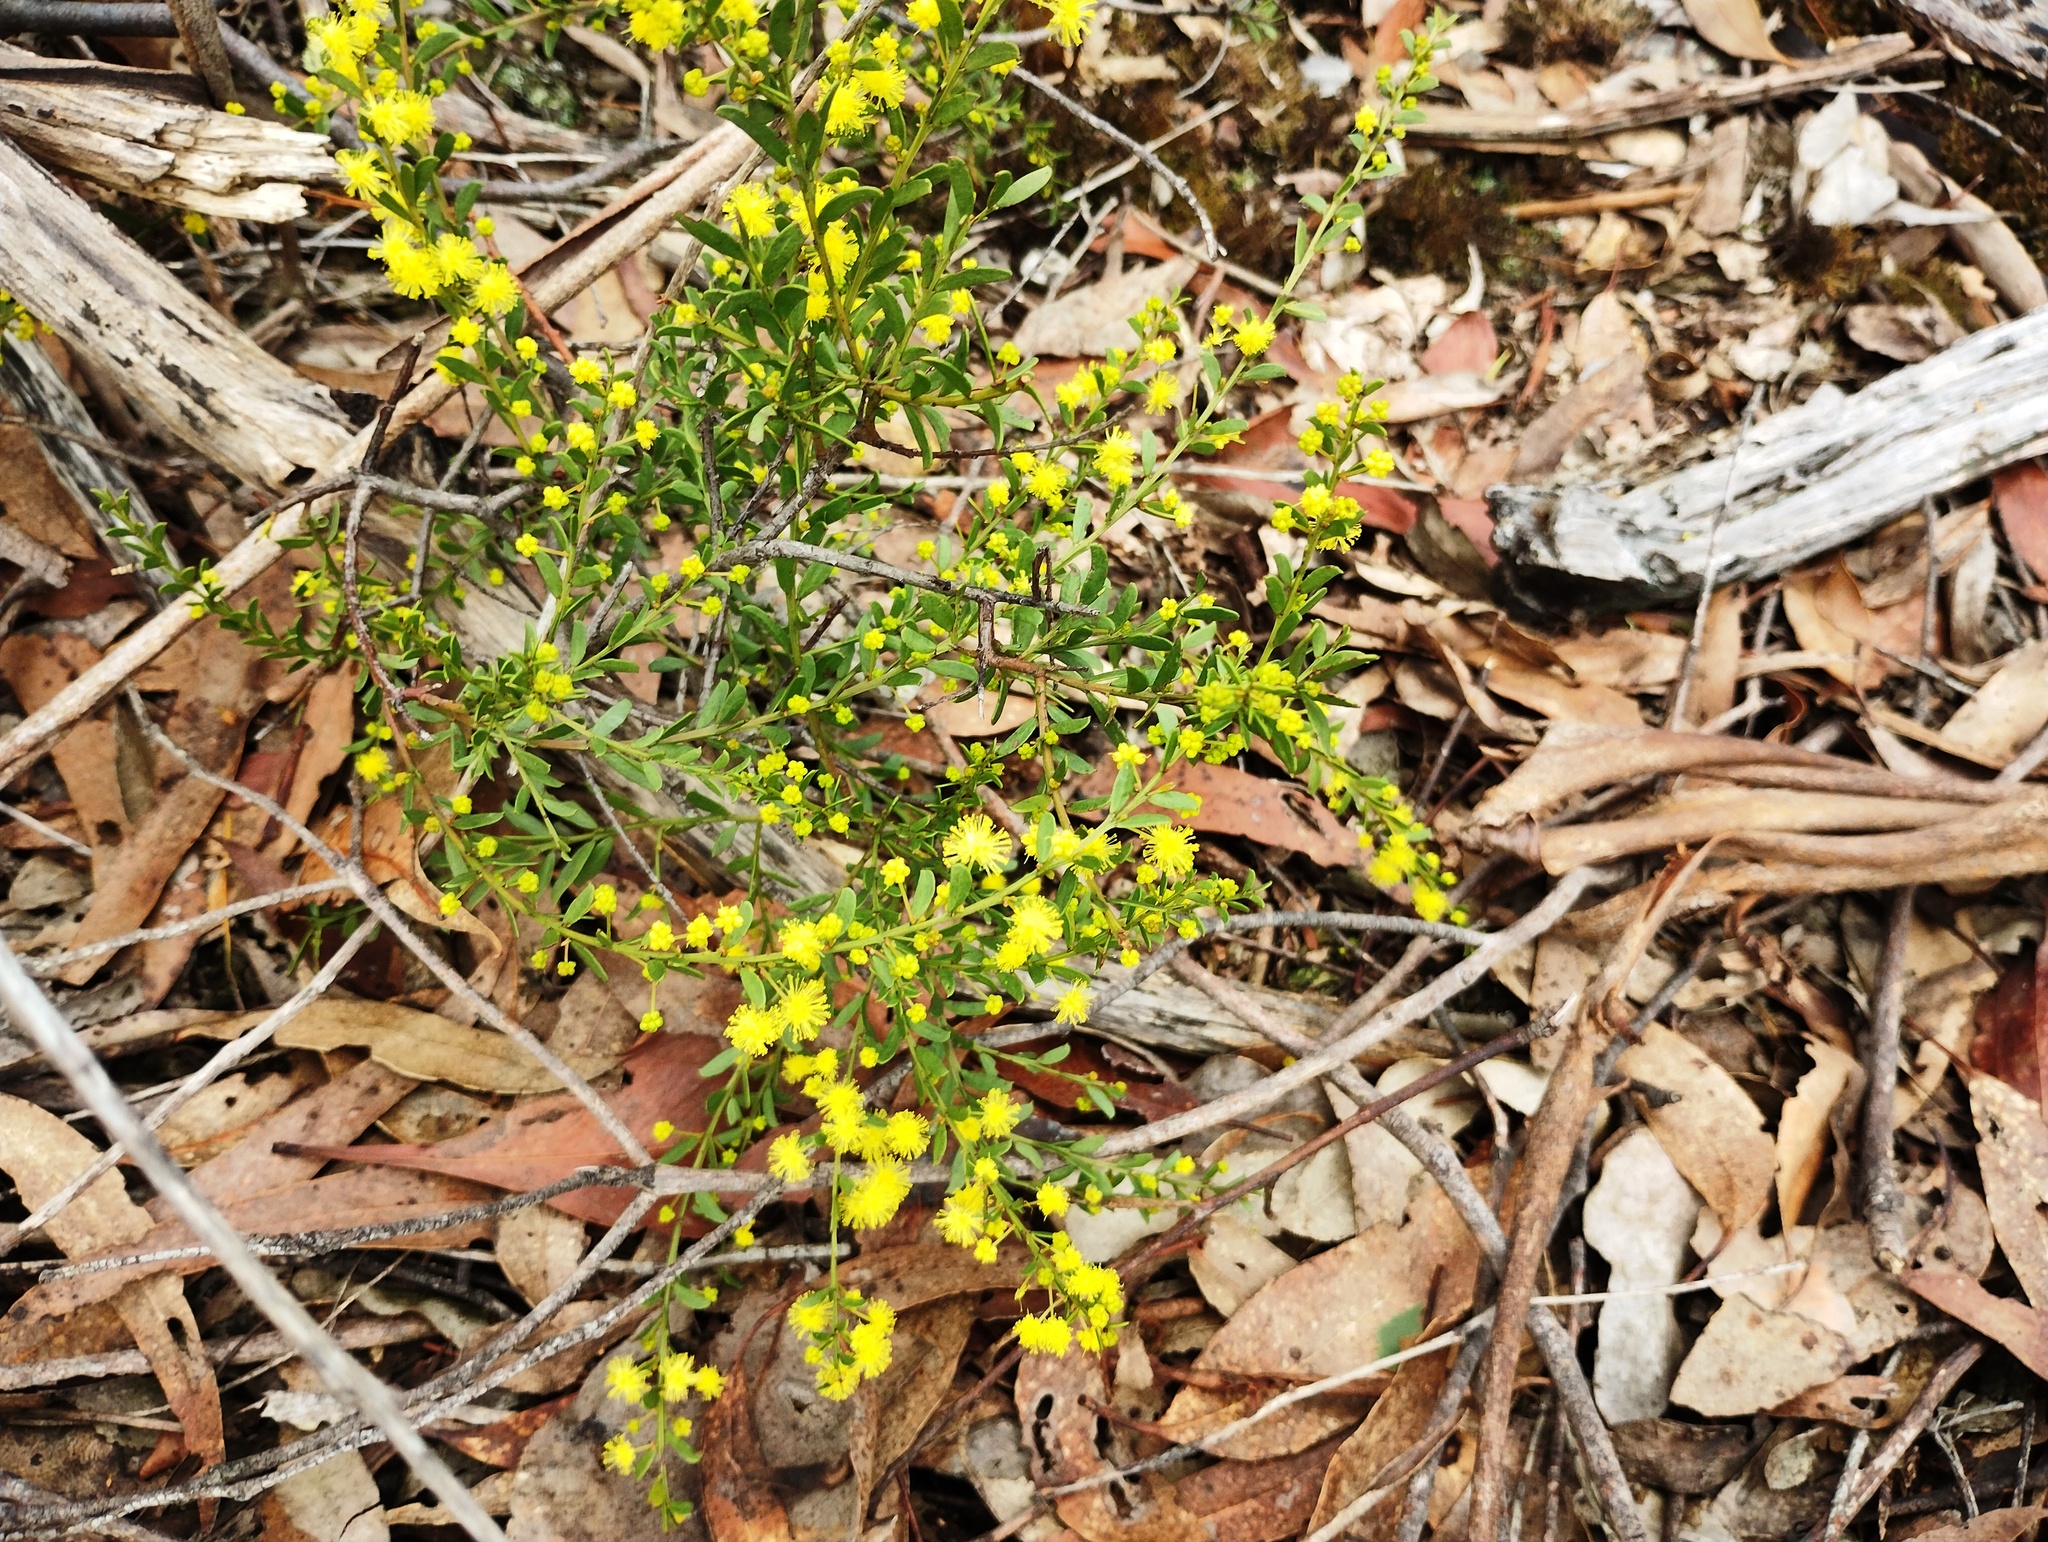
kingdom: Plantae
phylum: Tracheophyta
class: Magnoliopsida
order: Fabales
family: Fabaceae
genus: Acacia
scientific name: Acacia acinacea
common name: Gold-dust acacia
